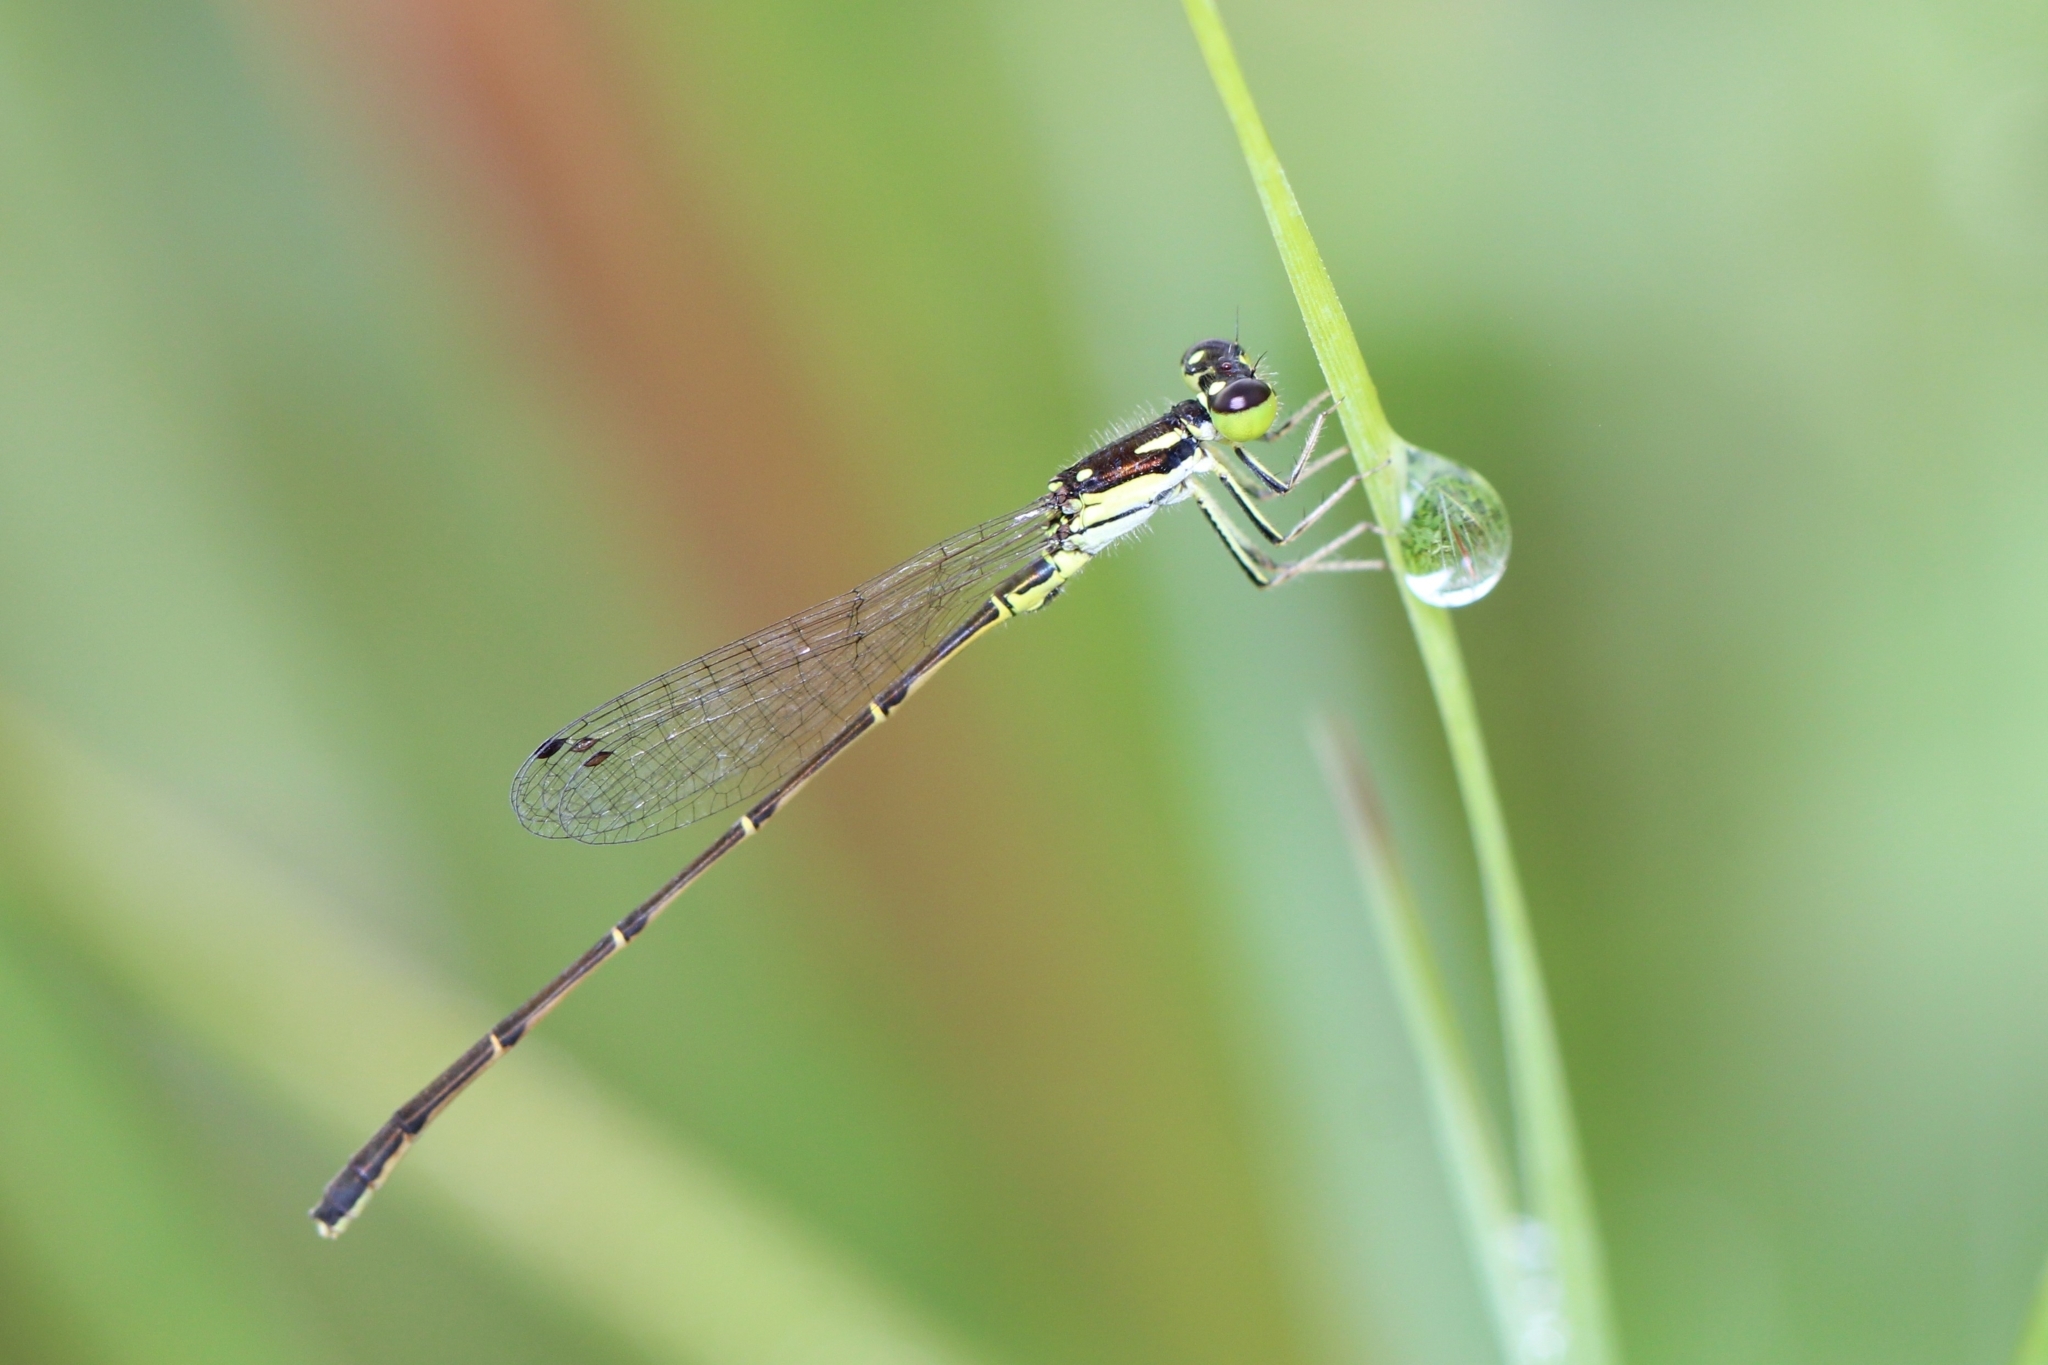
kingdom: Animalia
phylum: Arthropoda
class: Insecta
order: Odonata
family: Coenagrionidae
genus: Ischnura
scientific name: Ischnura posita
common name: Fragile forktail
